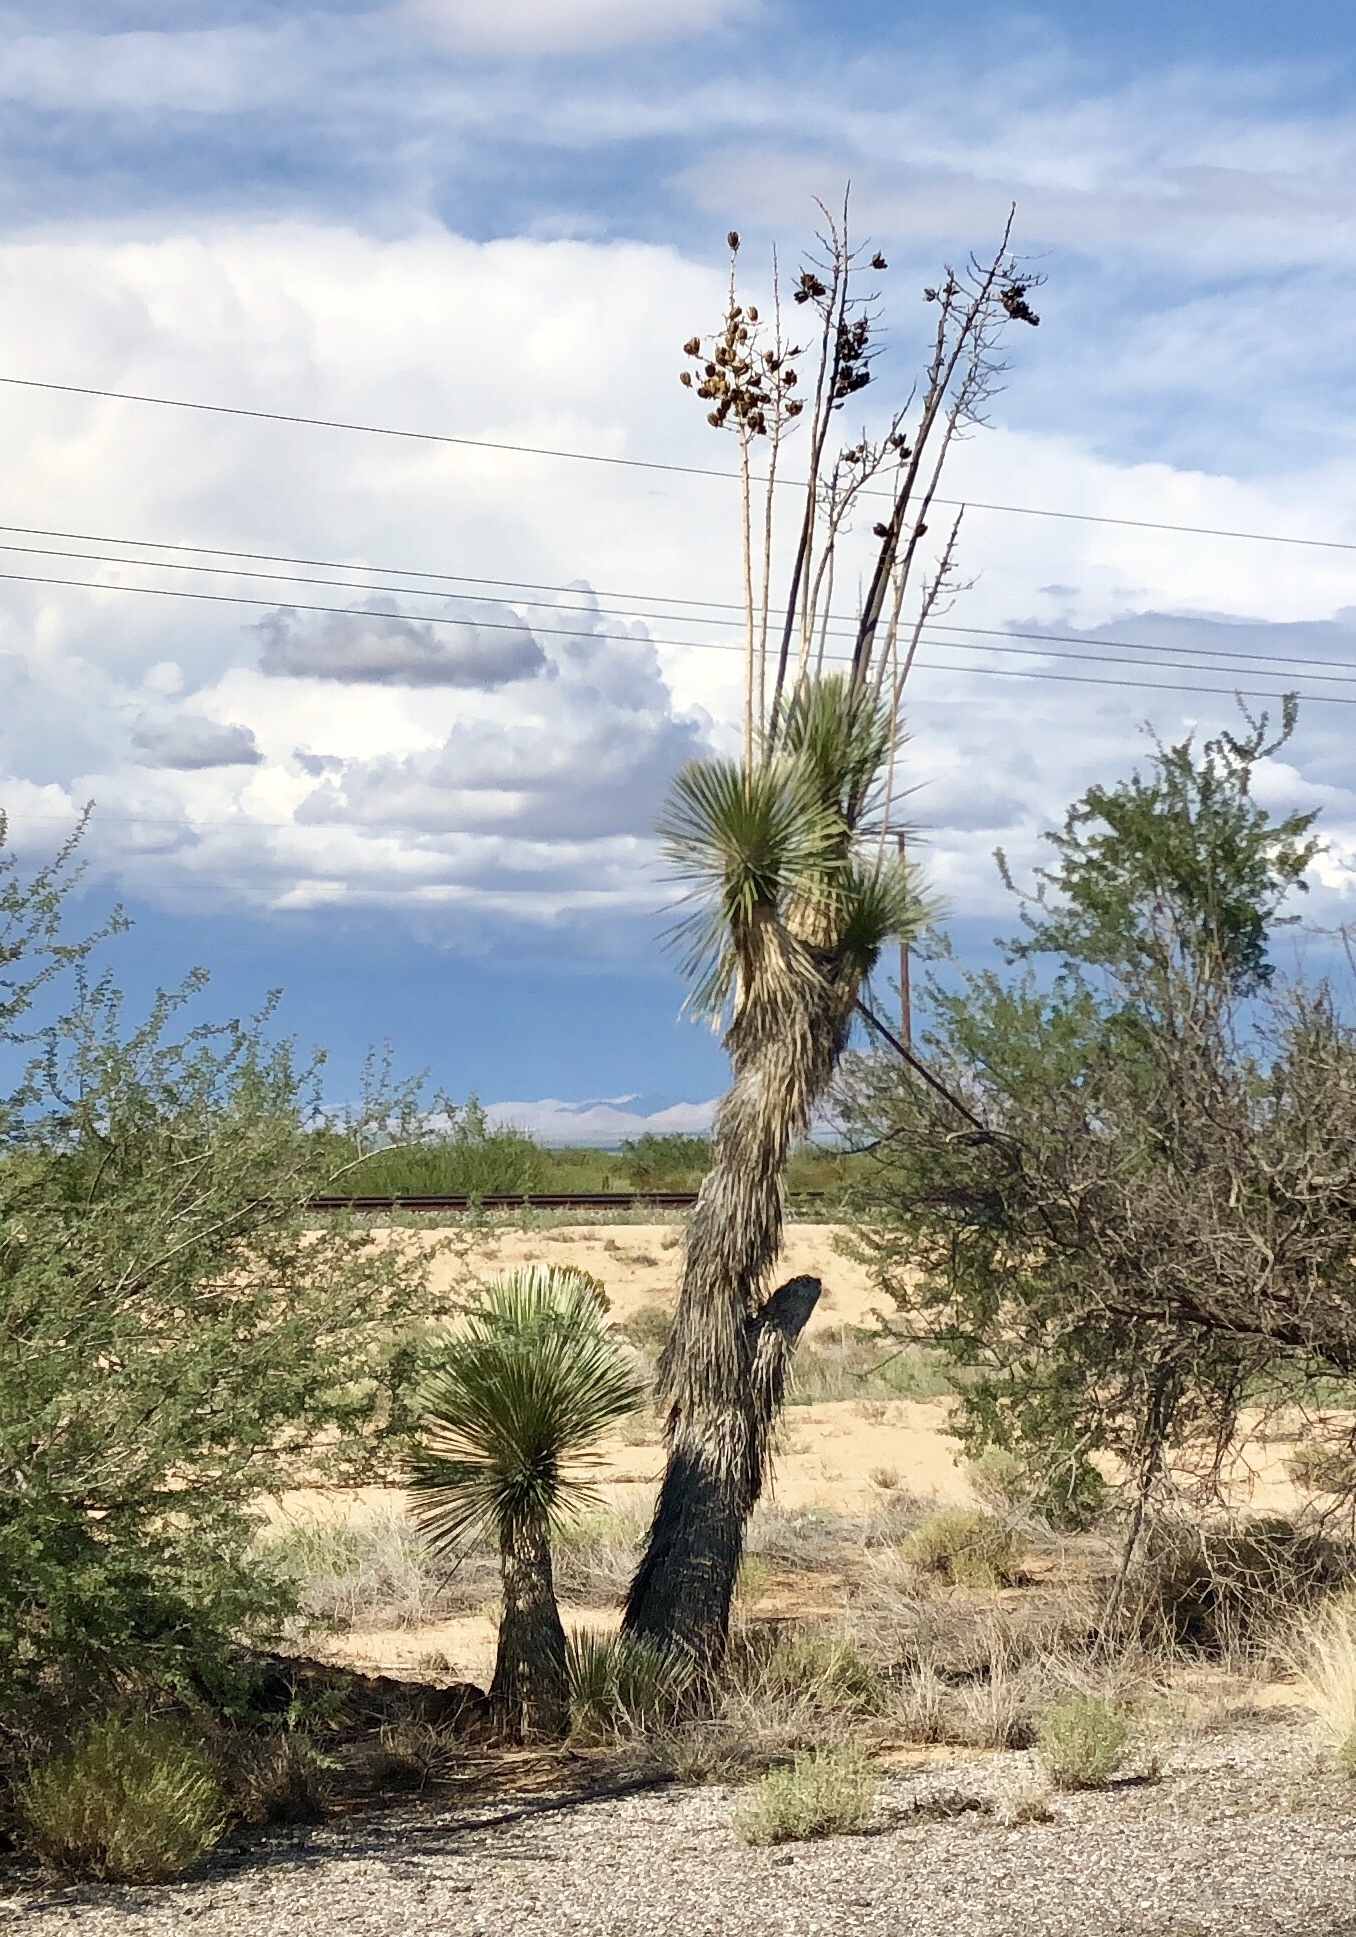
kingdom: Plantae
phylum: Tracheophyta
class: Liliopsida
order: Asparagales
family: Asparagaceae
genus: Yucca
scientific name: Yucca elata
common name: Palmella
